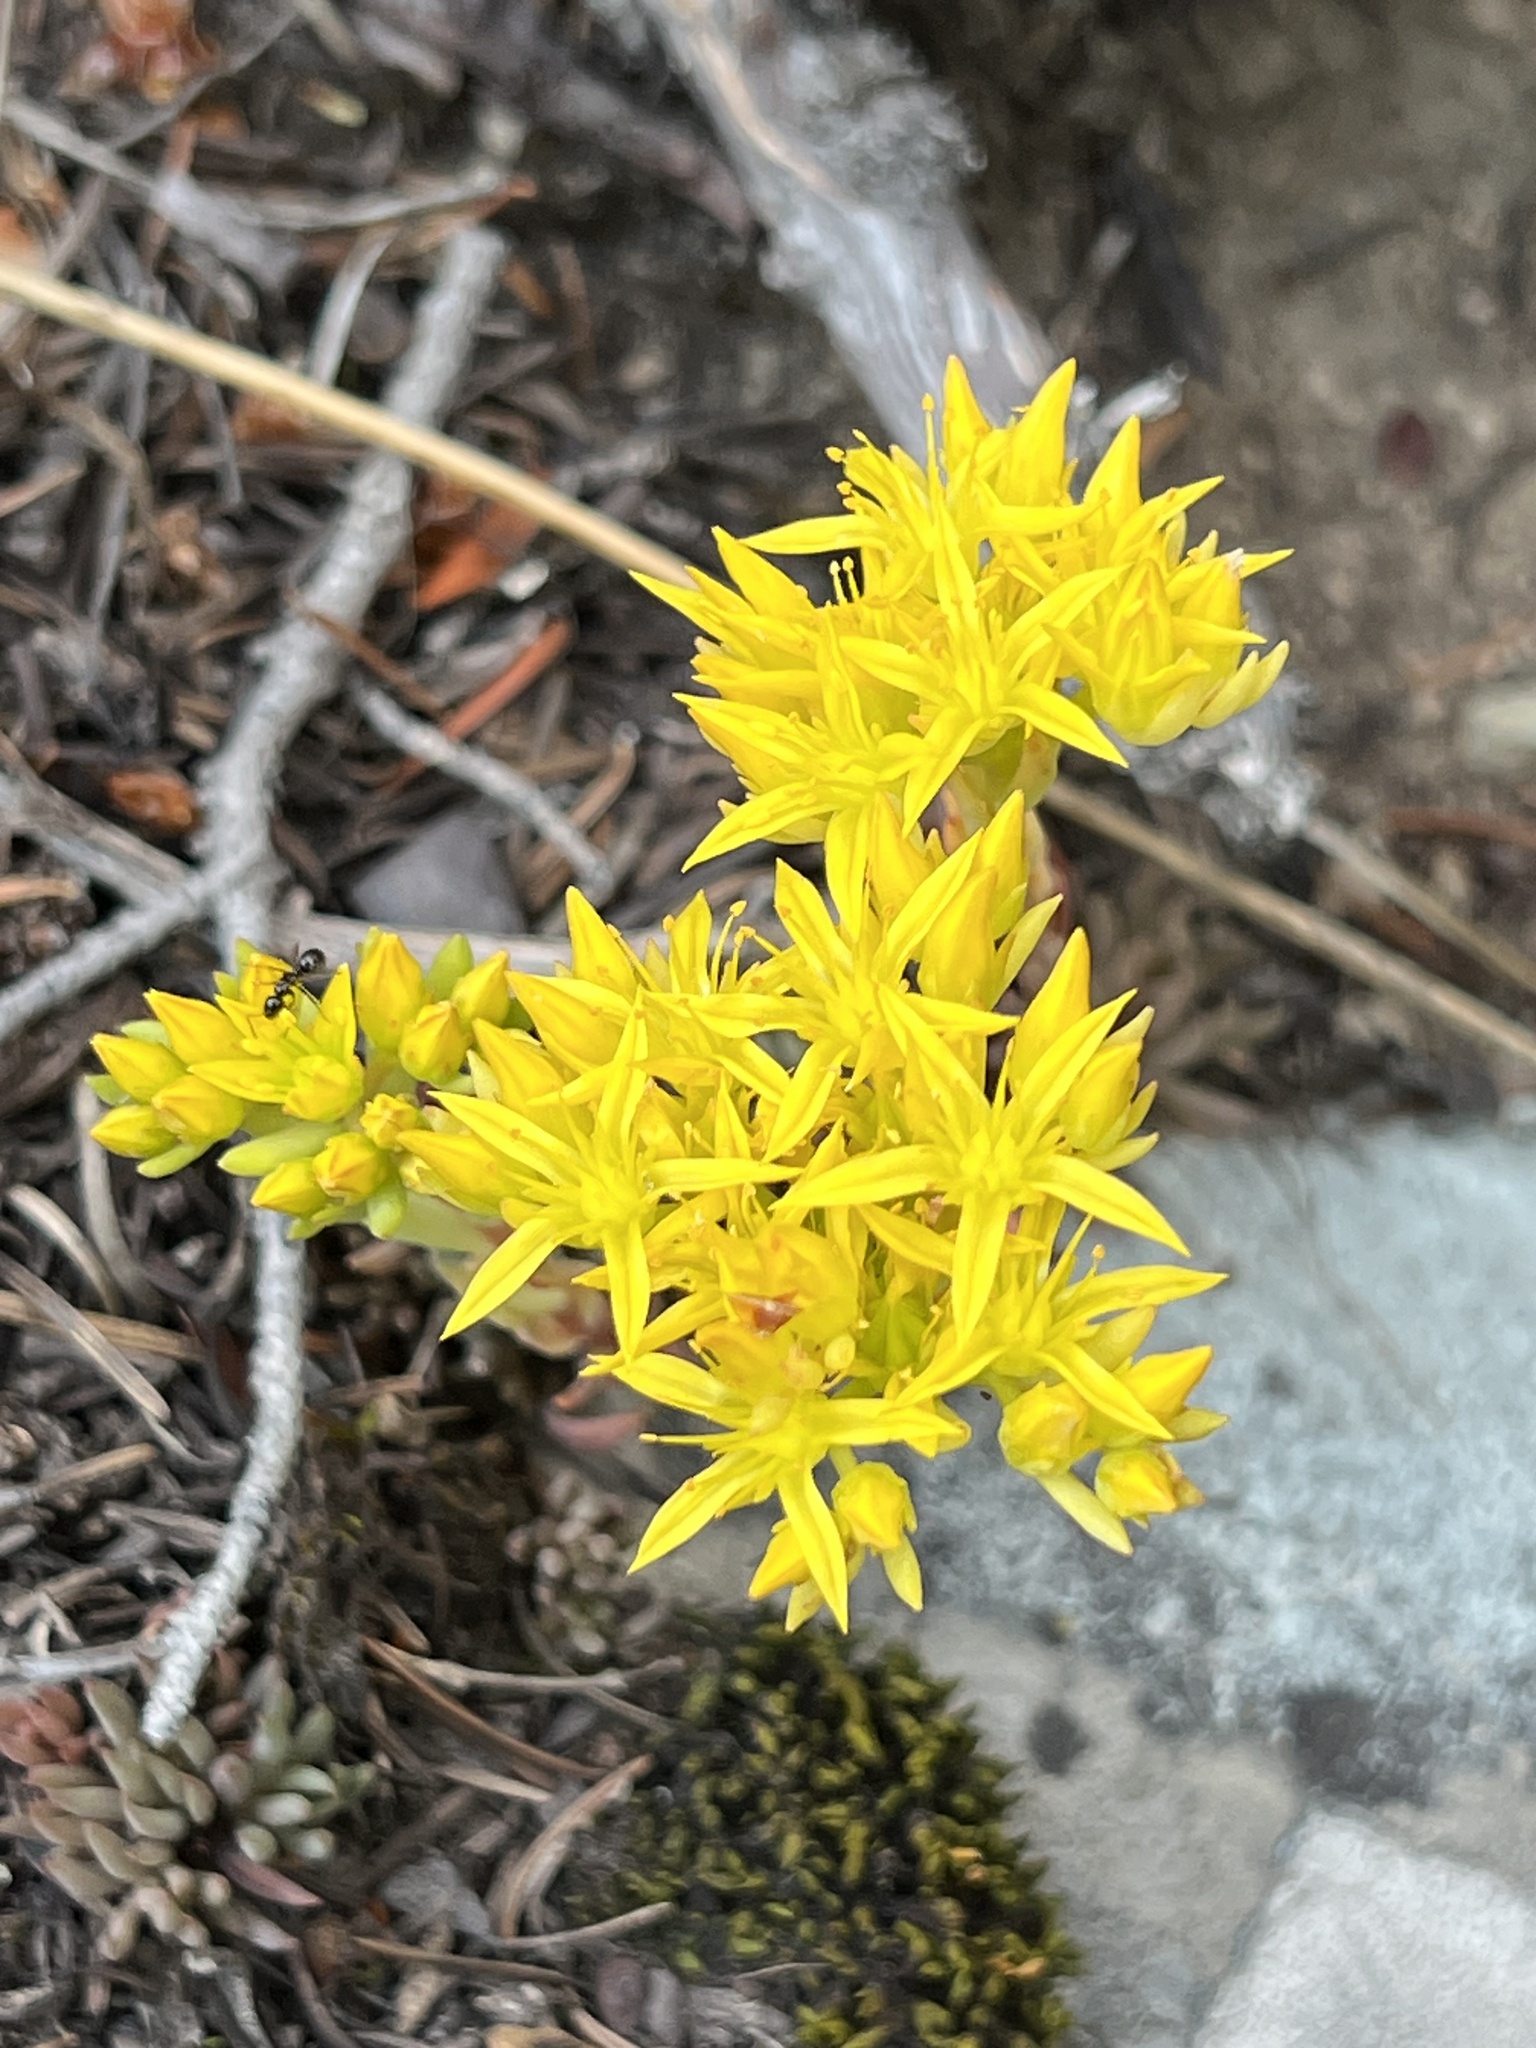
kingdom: Plantae
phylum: Tracheophyta
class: Magnoliopsida
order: Saxifragales
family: Crassulaceae
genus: Sedum
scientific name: Sedum lanceolatum
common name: Common stonecrop
